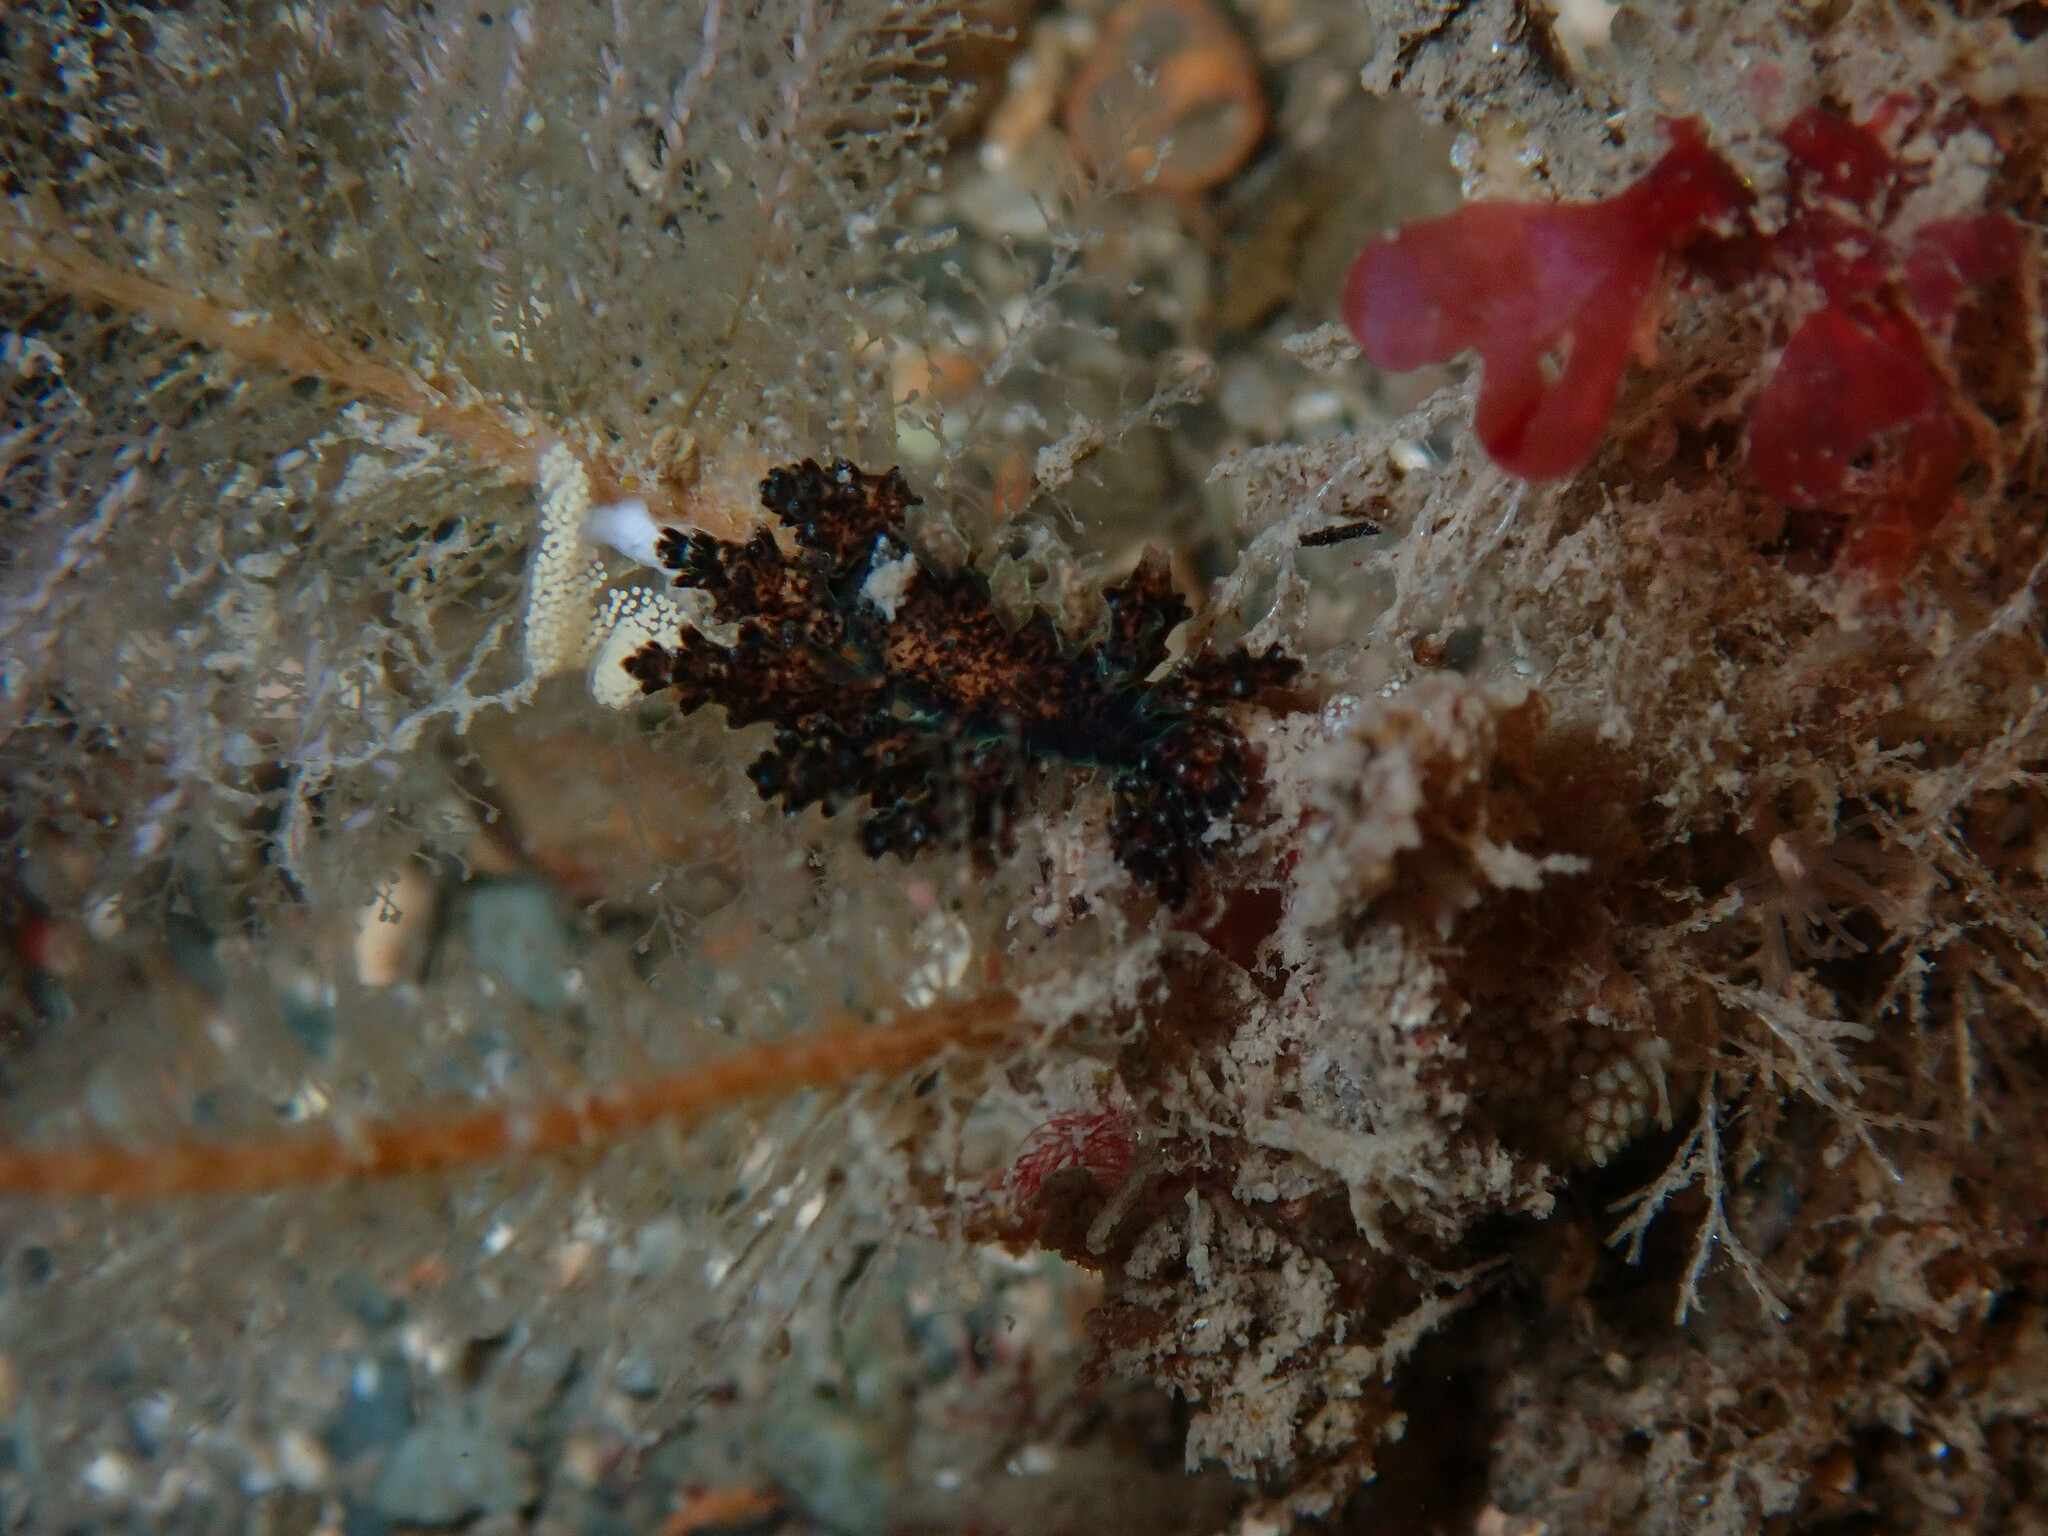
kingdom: Animalia
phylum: Mollusca
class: Gastropoda
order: Nudibranchia
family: Dotidae
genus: Doto
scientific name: Doto cuspidata
